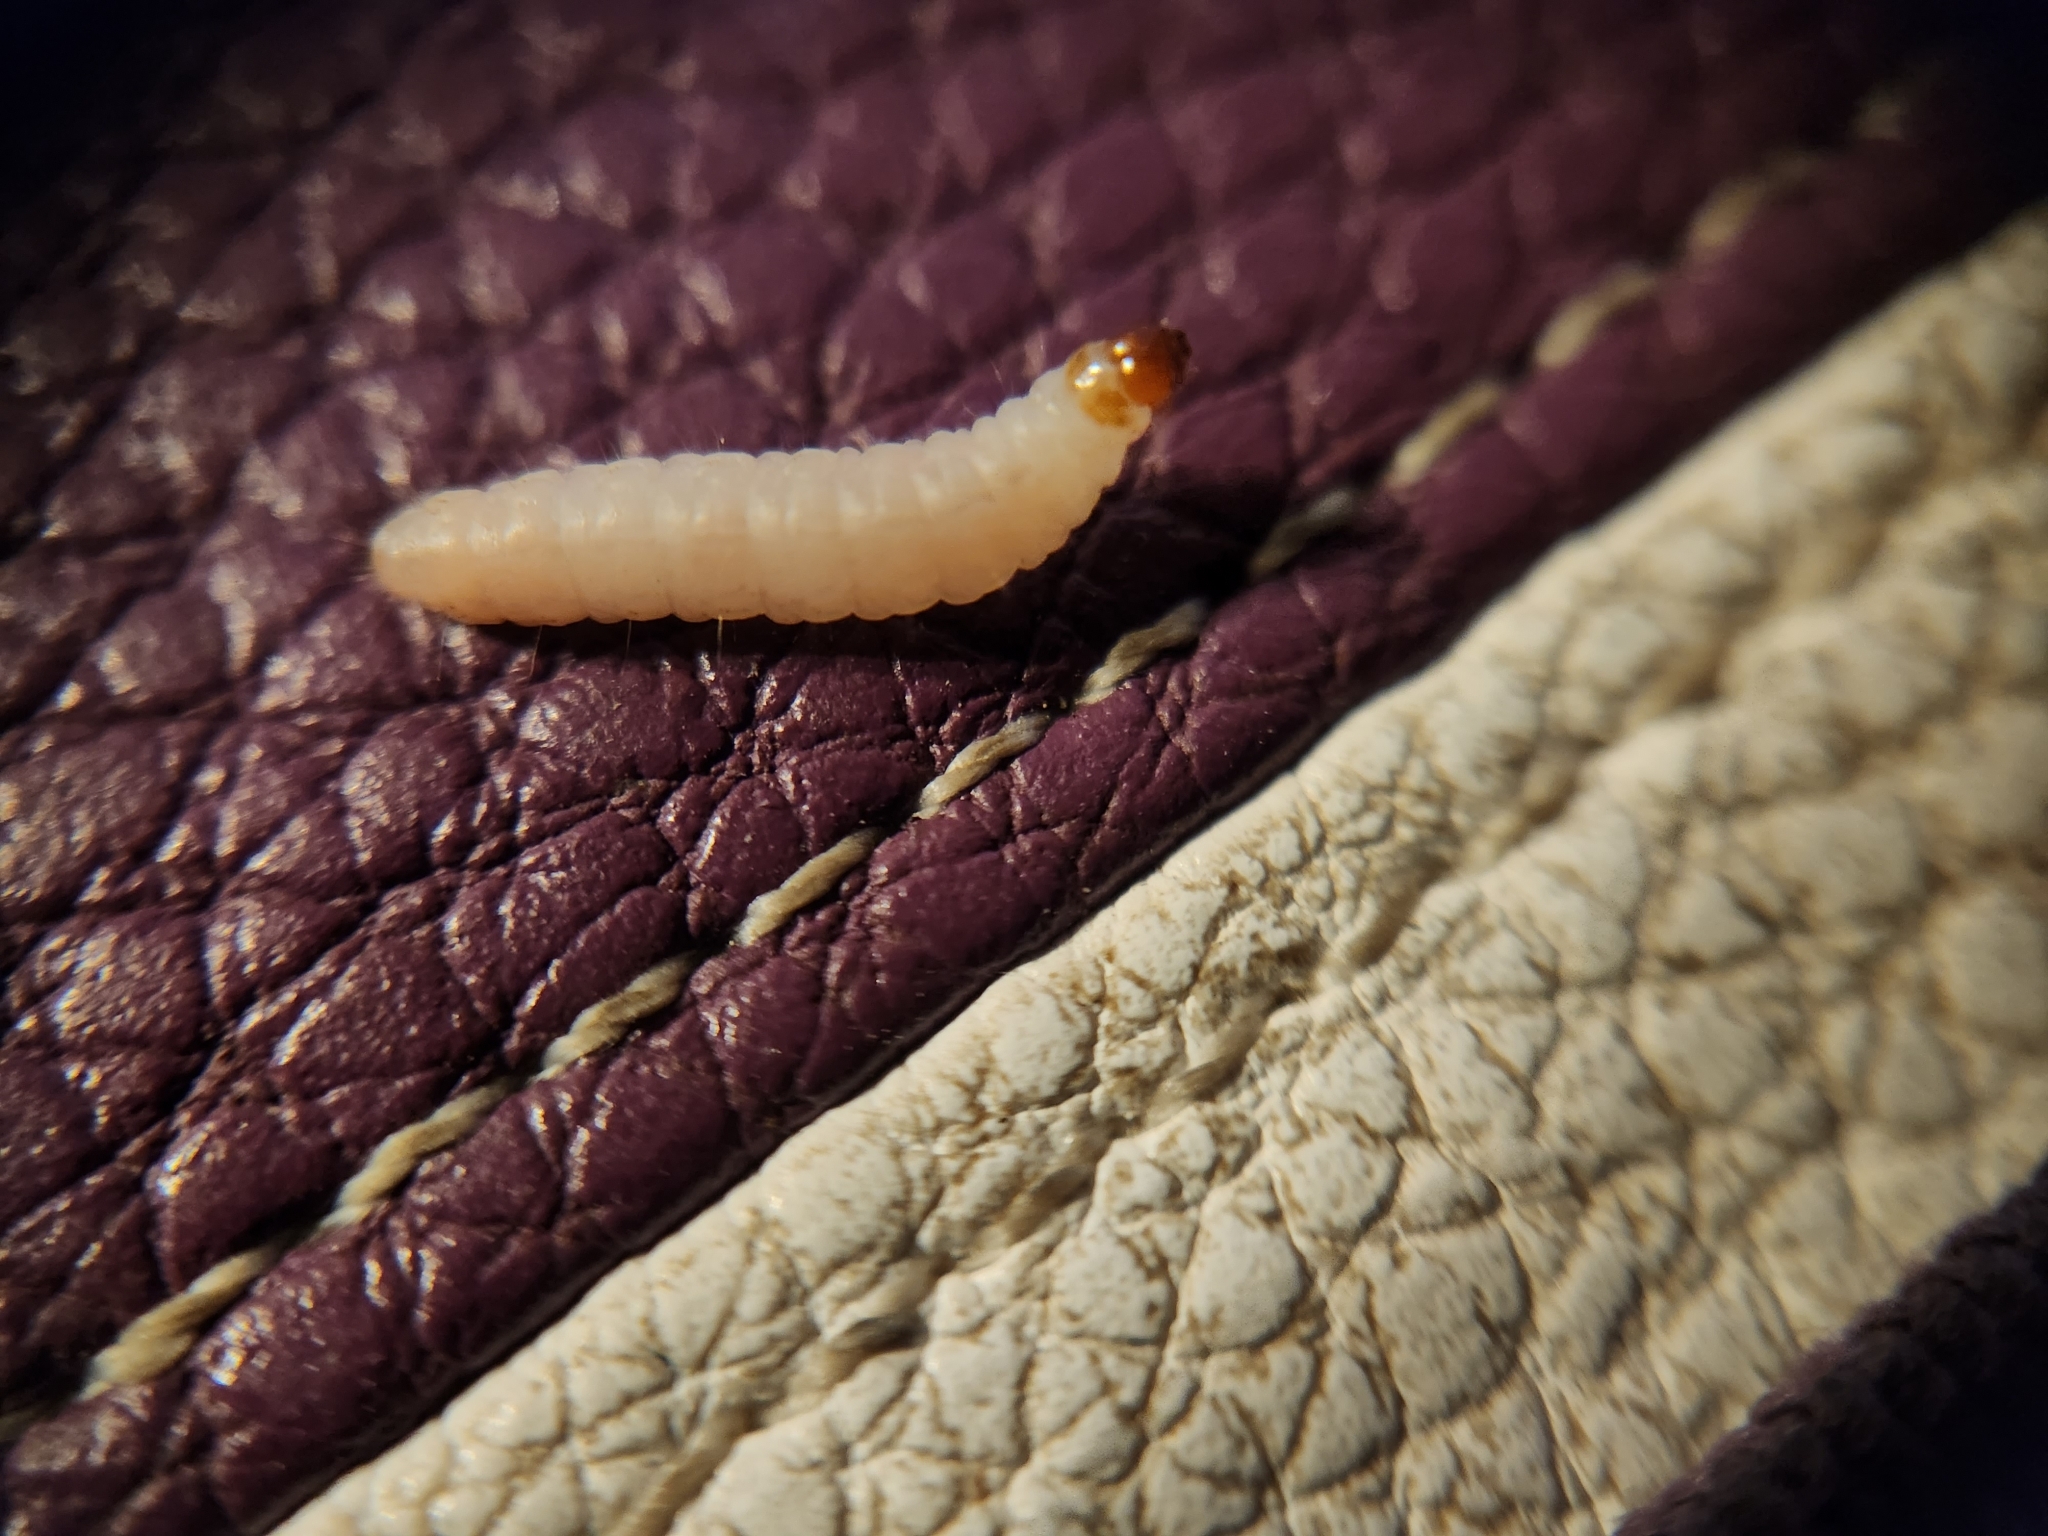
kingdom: Animalia
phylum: Arthropoda
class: Insecta
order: Lepidoptera
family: Pyralidae
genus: Plodia
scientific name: Plodia interpunctella
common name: Indian meal moth
